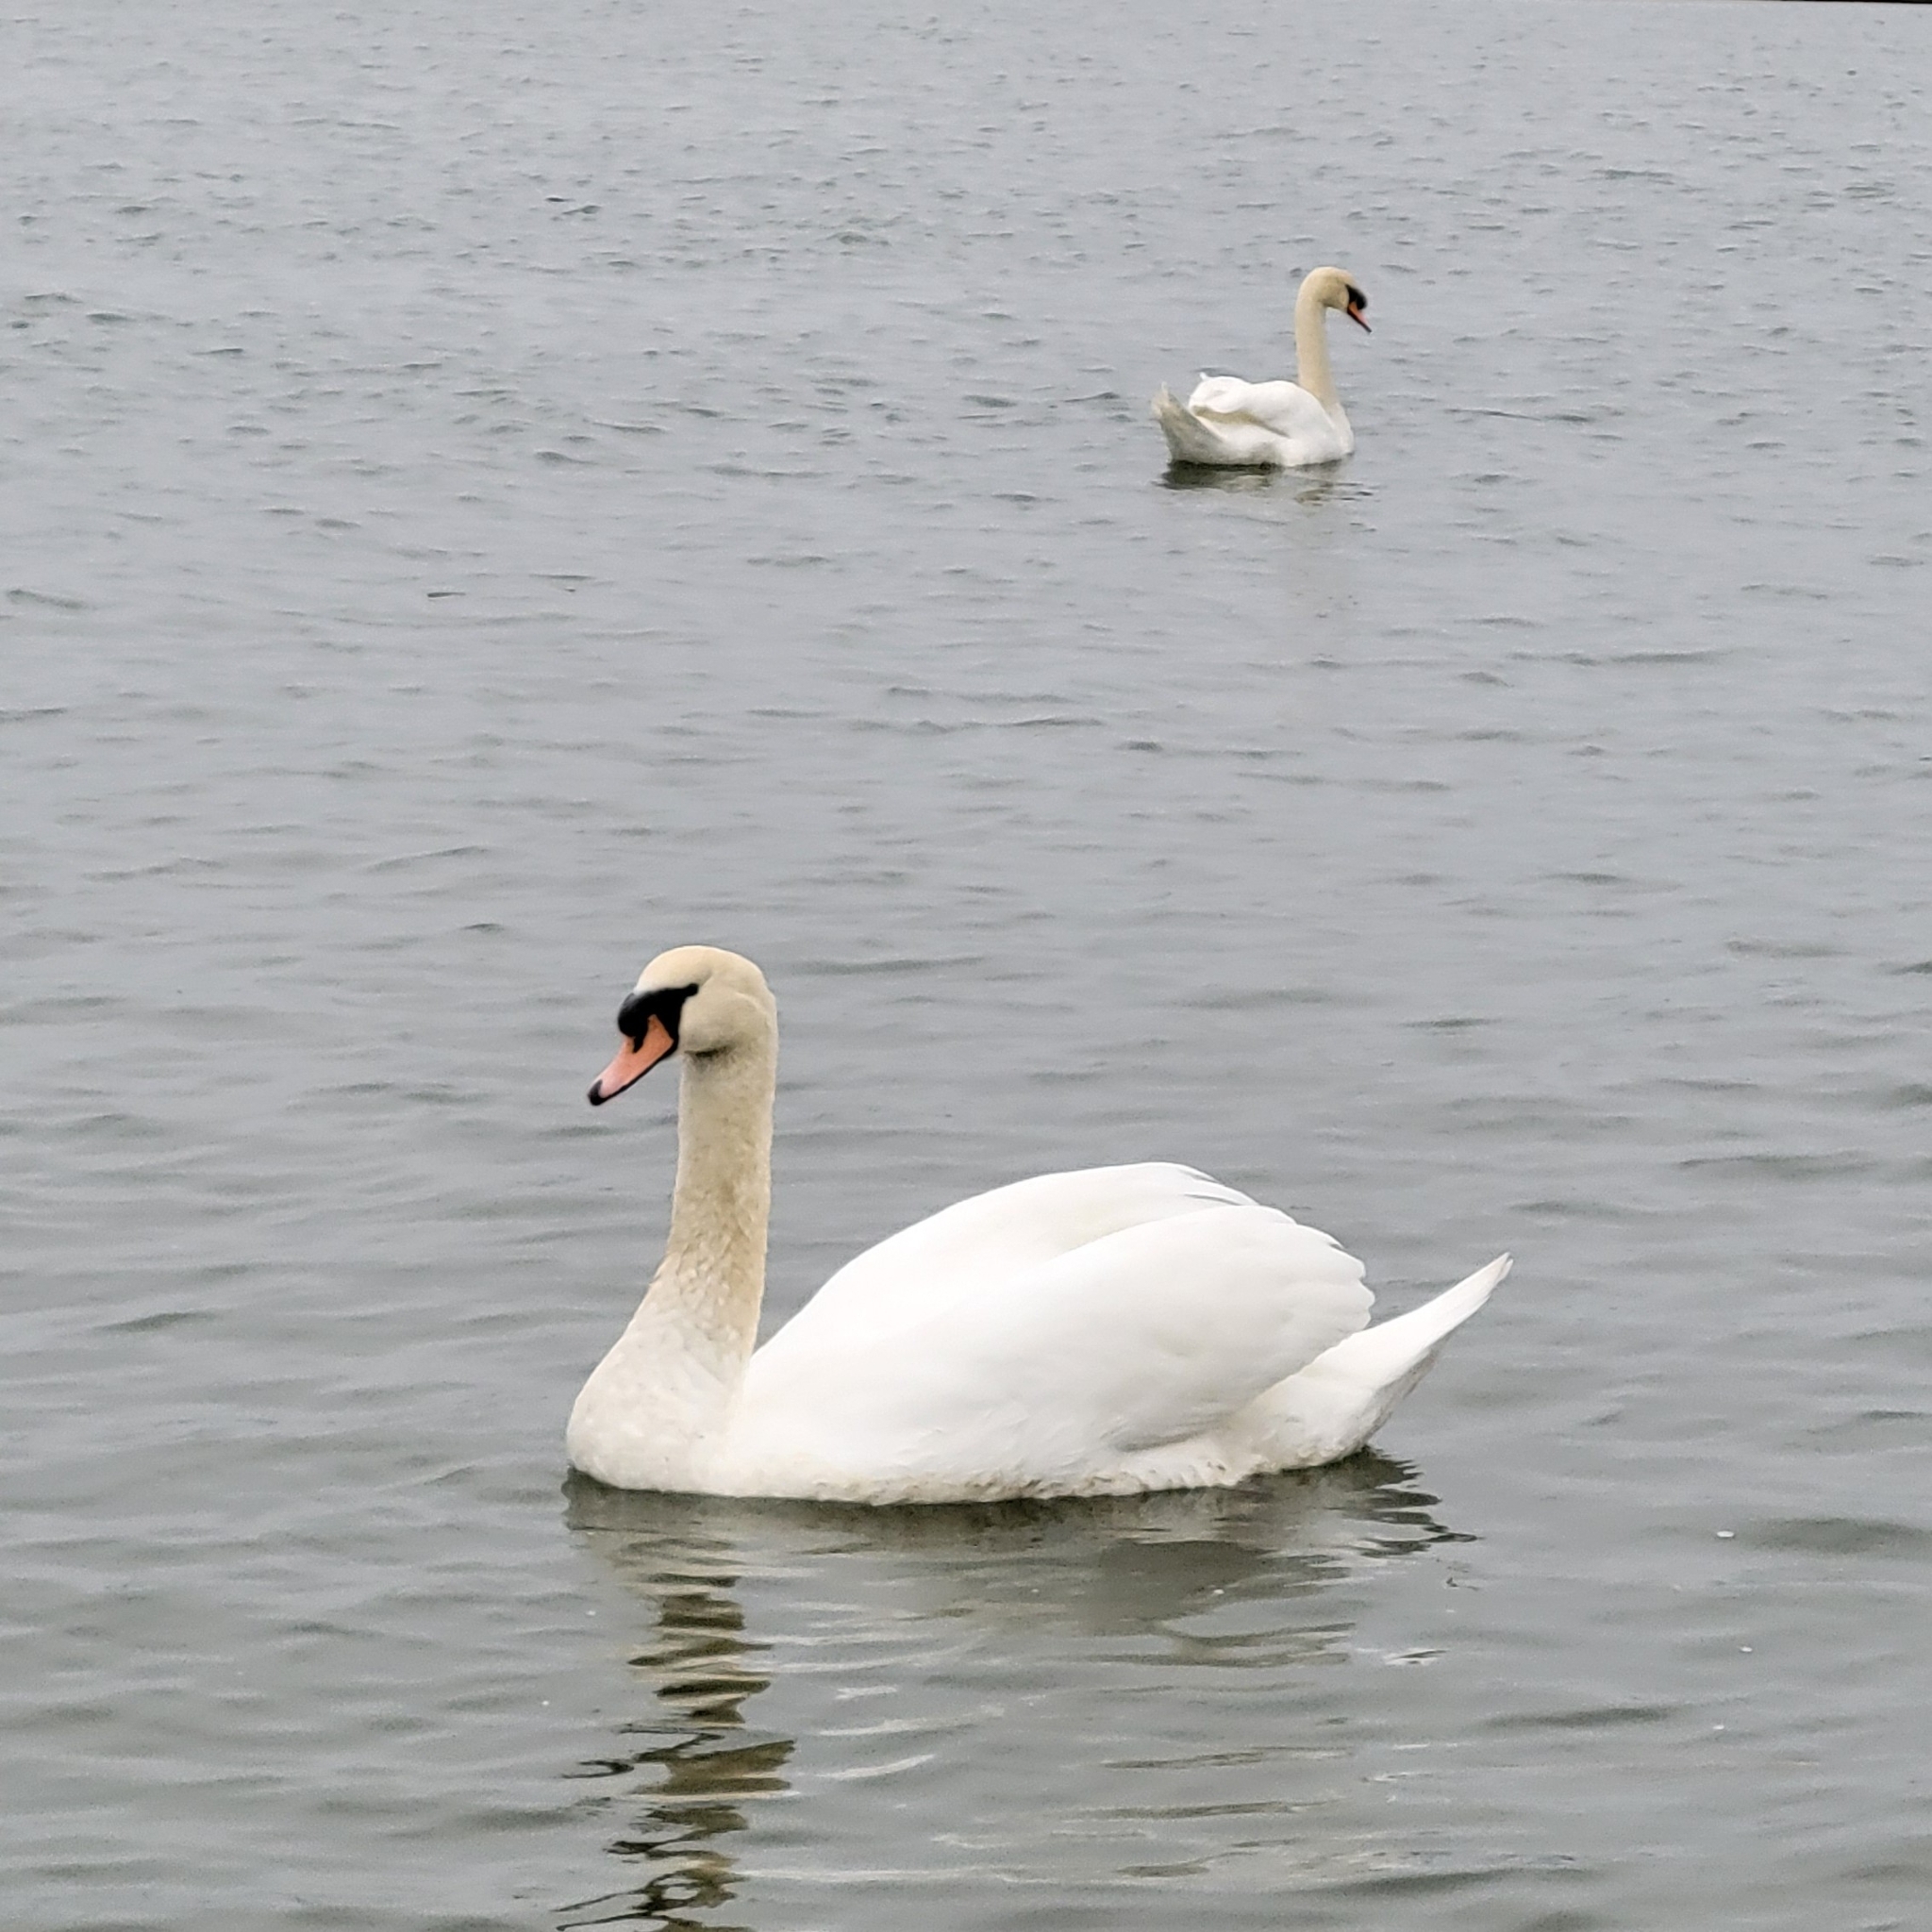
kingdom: Animalia
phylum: Chordata
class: Aves
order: Anseriformes
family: Anatidae
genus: Cygnus
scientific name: Cygnus olor
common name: Mute swan
